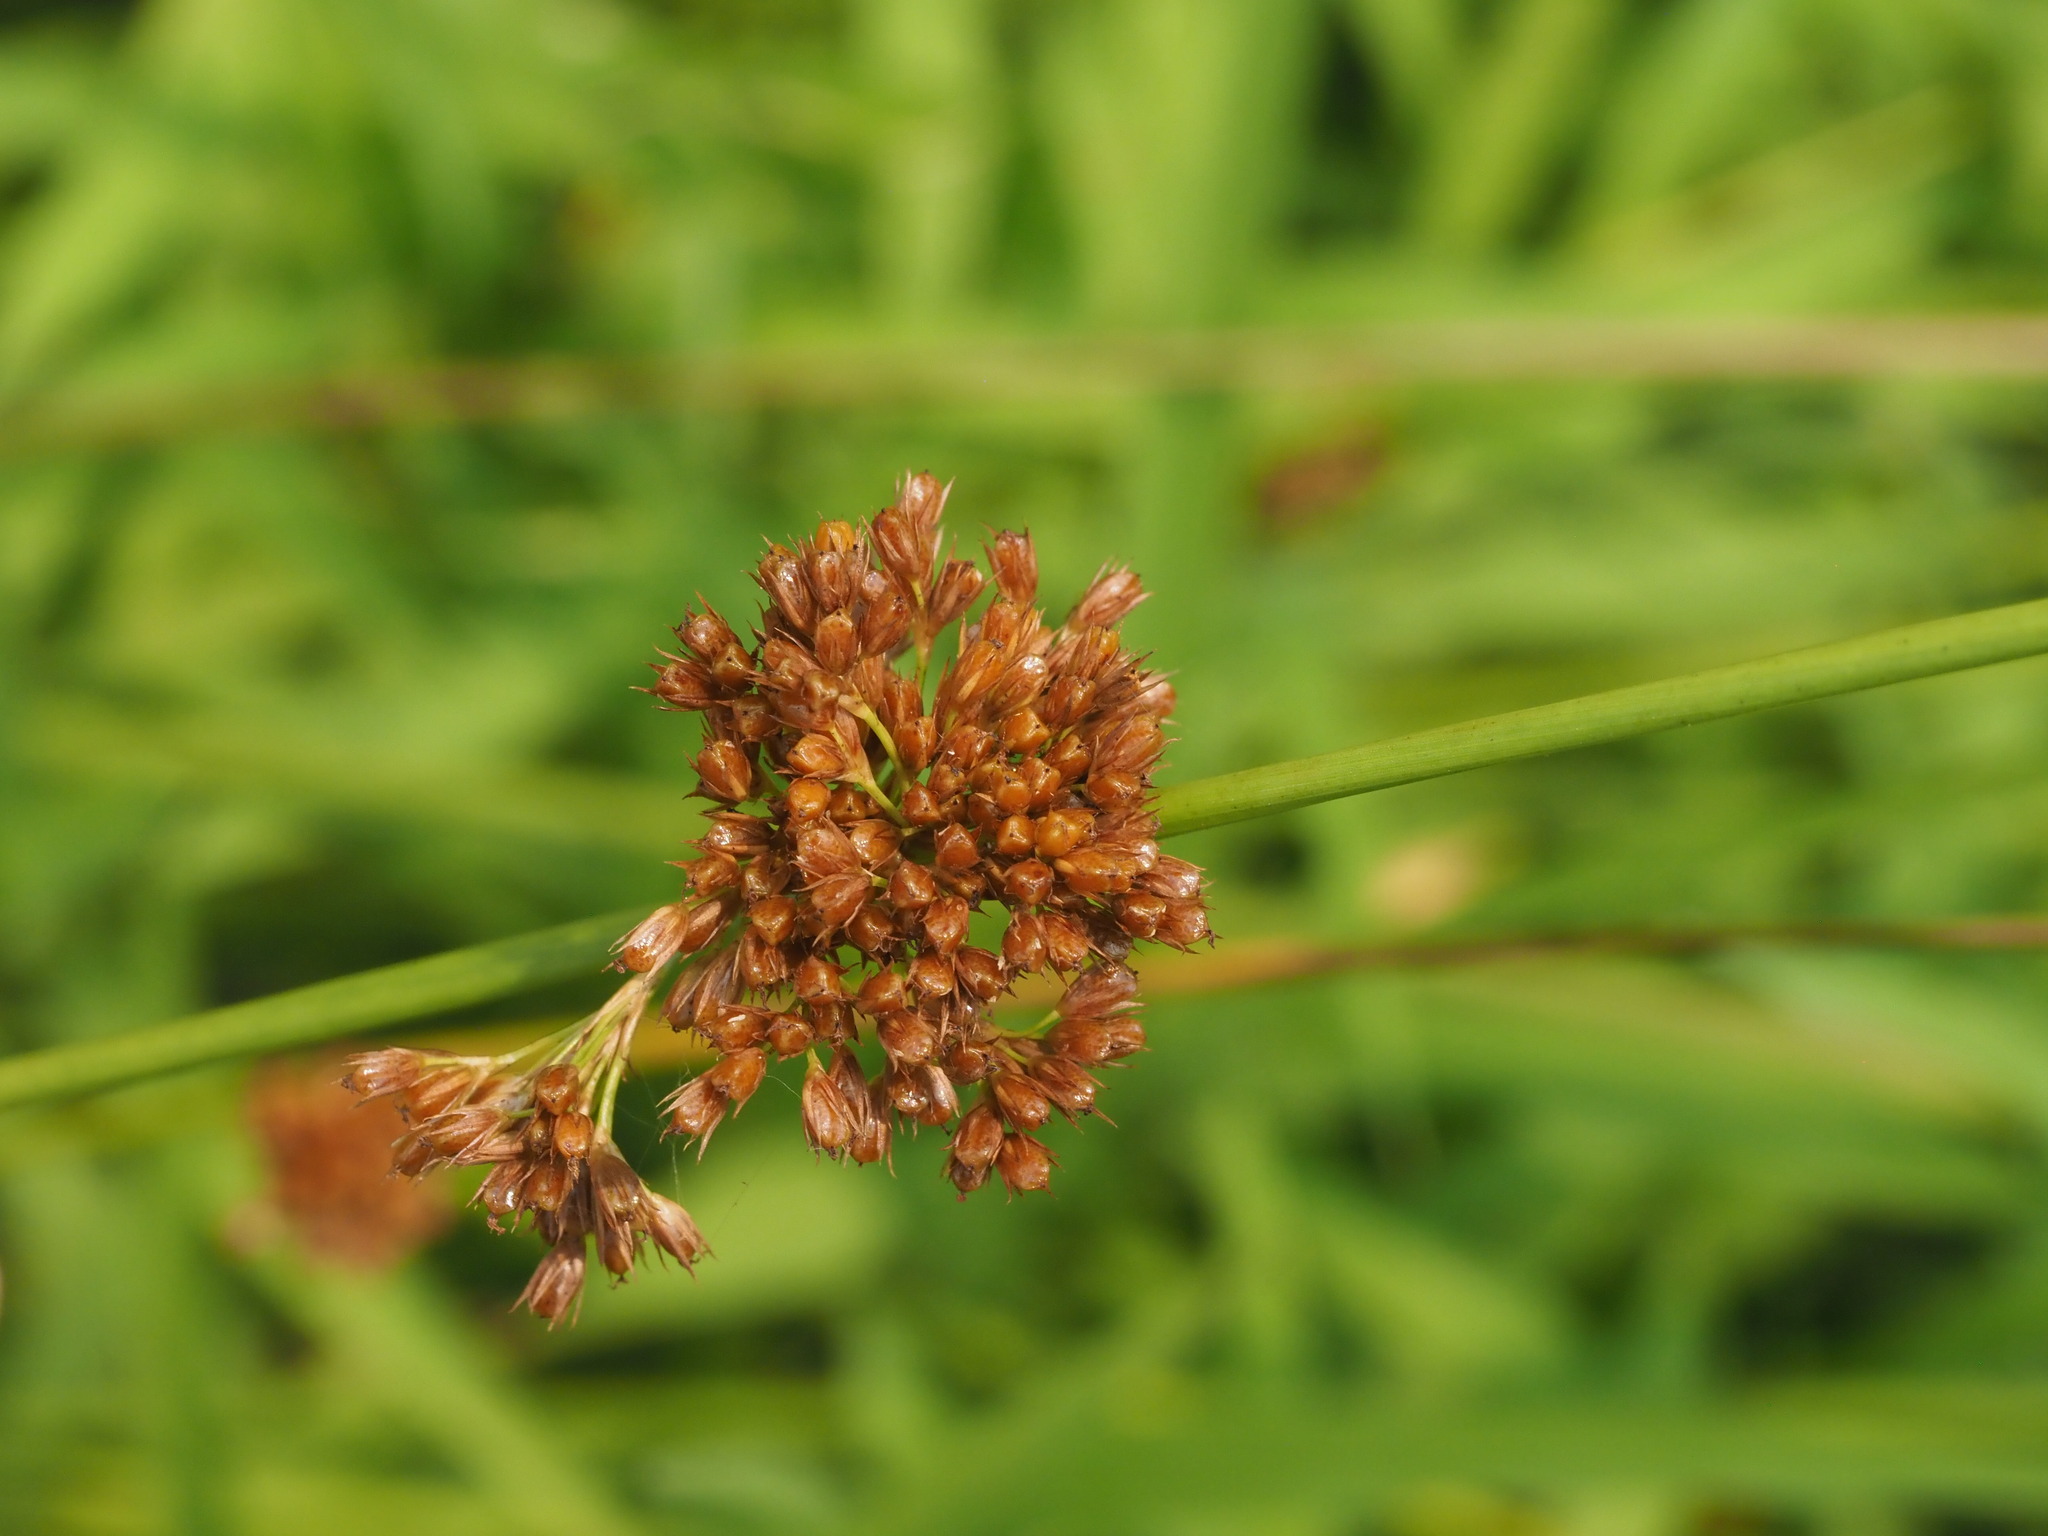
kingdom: Plantae
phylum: Tracheophyta
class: Liliopsida
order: Poales
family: Juncaceae
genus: Juncus
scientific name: Juncus effusus
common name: Soft rush
